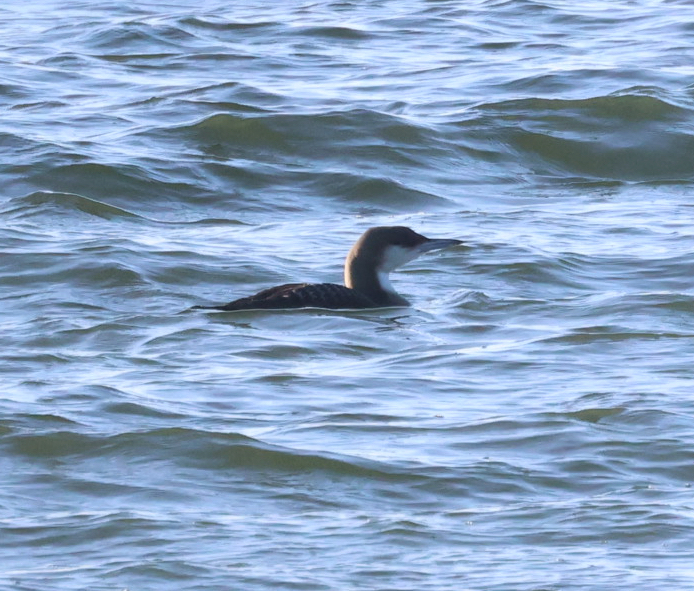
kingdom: Animalia
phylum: Chordata
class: Aves
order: Gaviiformes
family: Gaviidae
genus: Gavia
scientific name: Gavia arctica
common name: Black-throated loon
